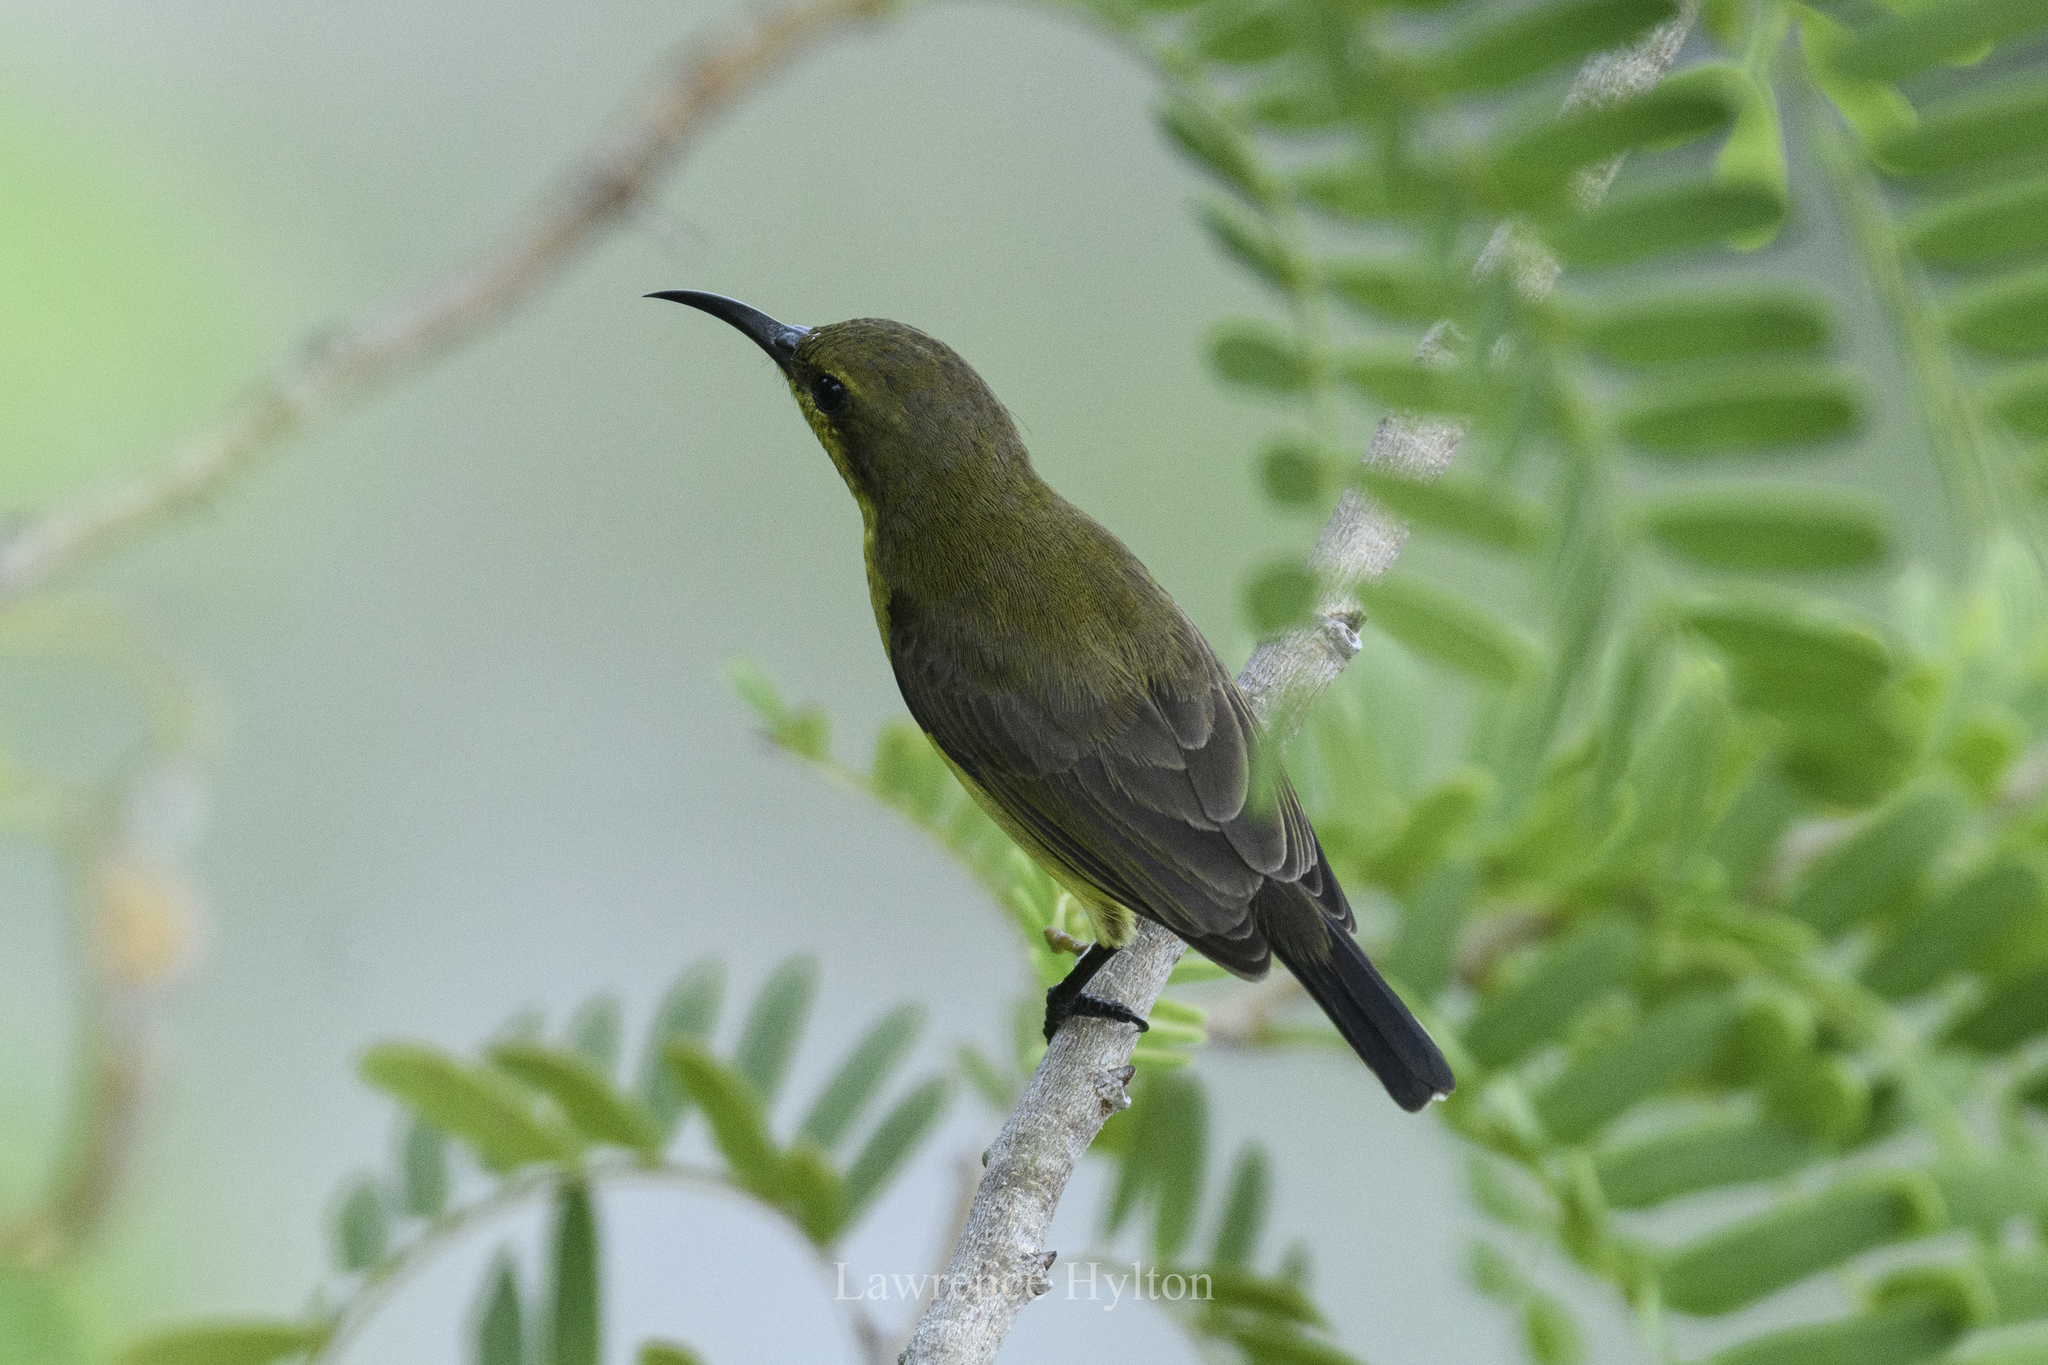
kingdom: Animalia
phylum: Chordata
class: Aves
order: Passeriformes
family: Nectariniidae
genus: Cinnyris
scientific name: Cinnyris
